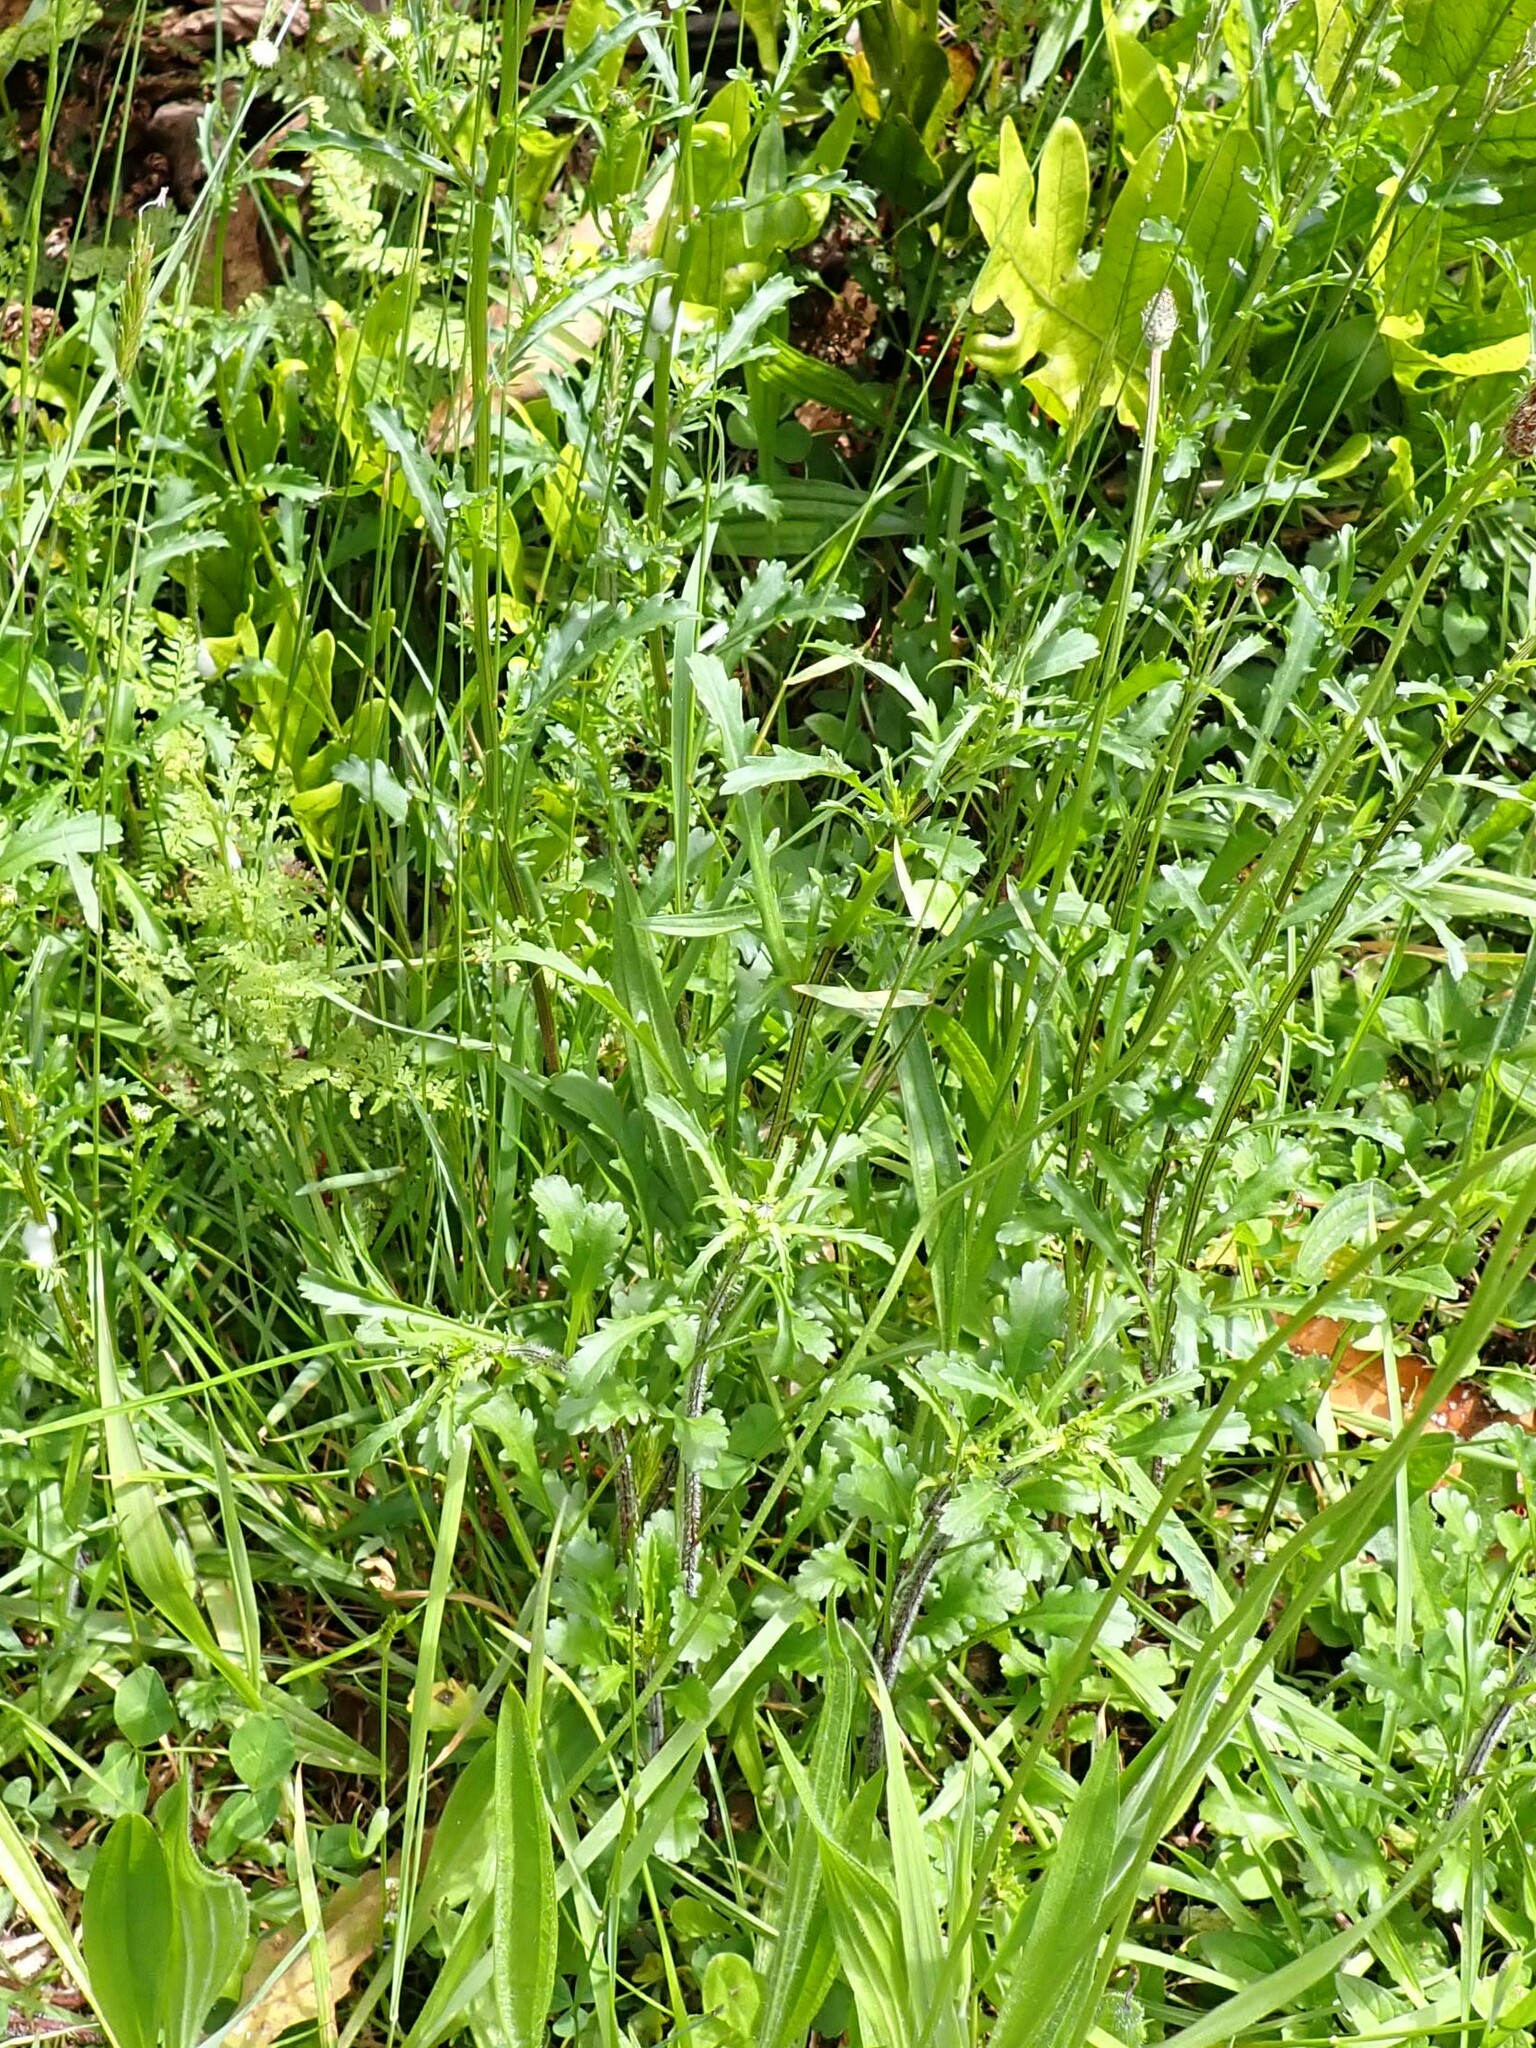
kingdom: Plantae
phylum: Tracheophyta
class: Magnoliopsida
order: Asterales
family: Asteraceae
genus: Leucanthemum
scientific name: Leucanthemum vulgare
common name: Oxeye daisy
